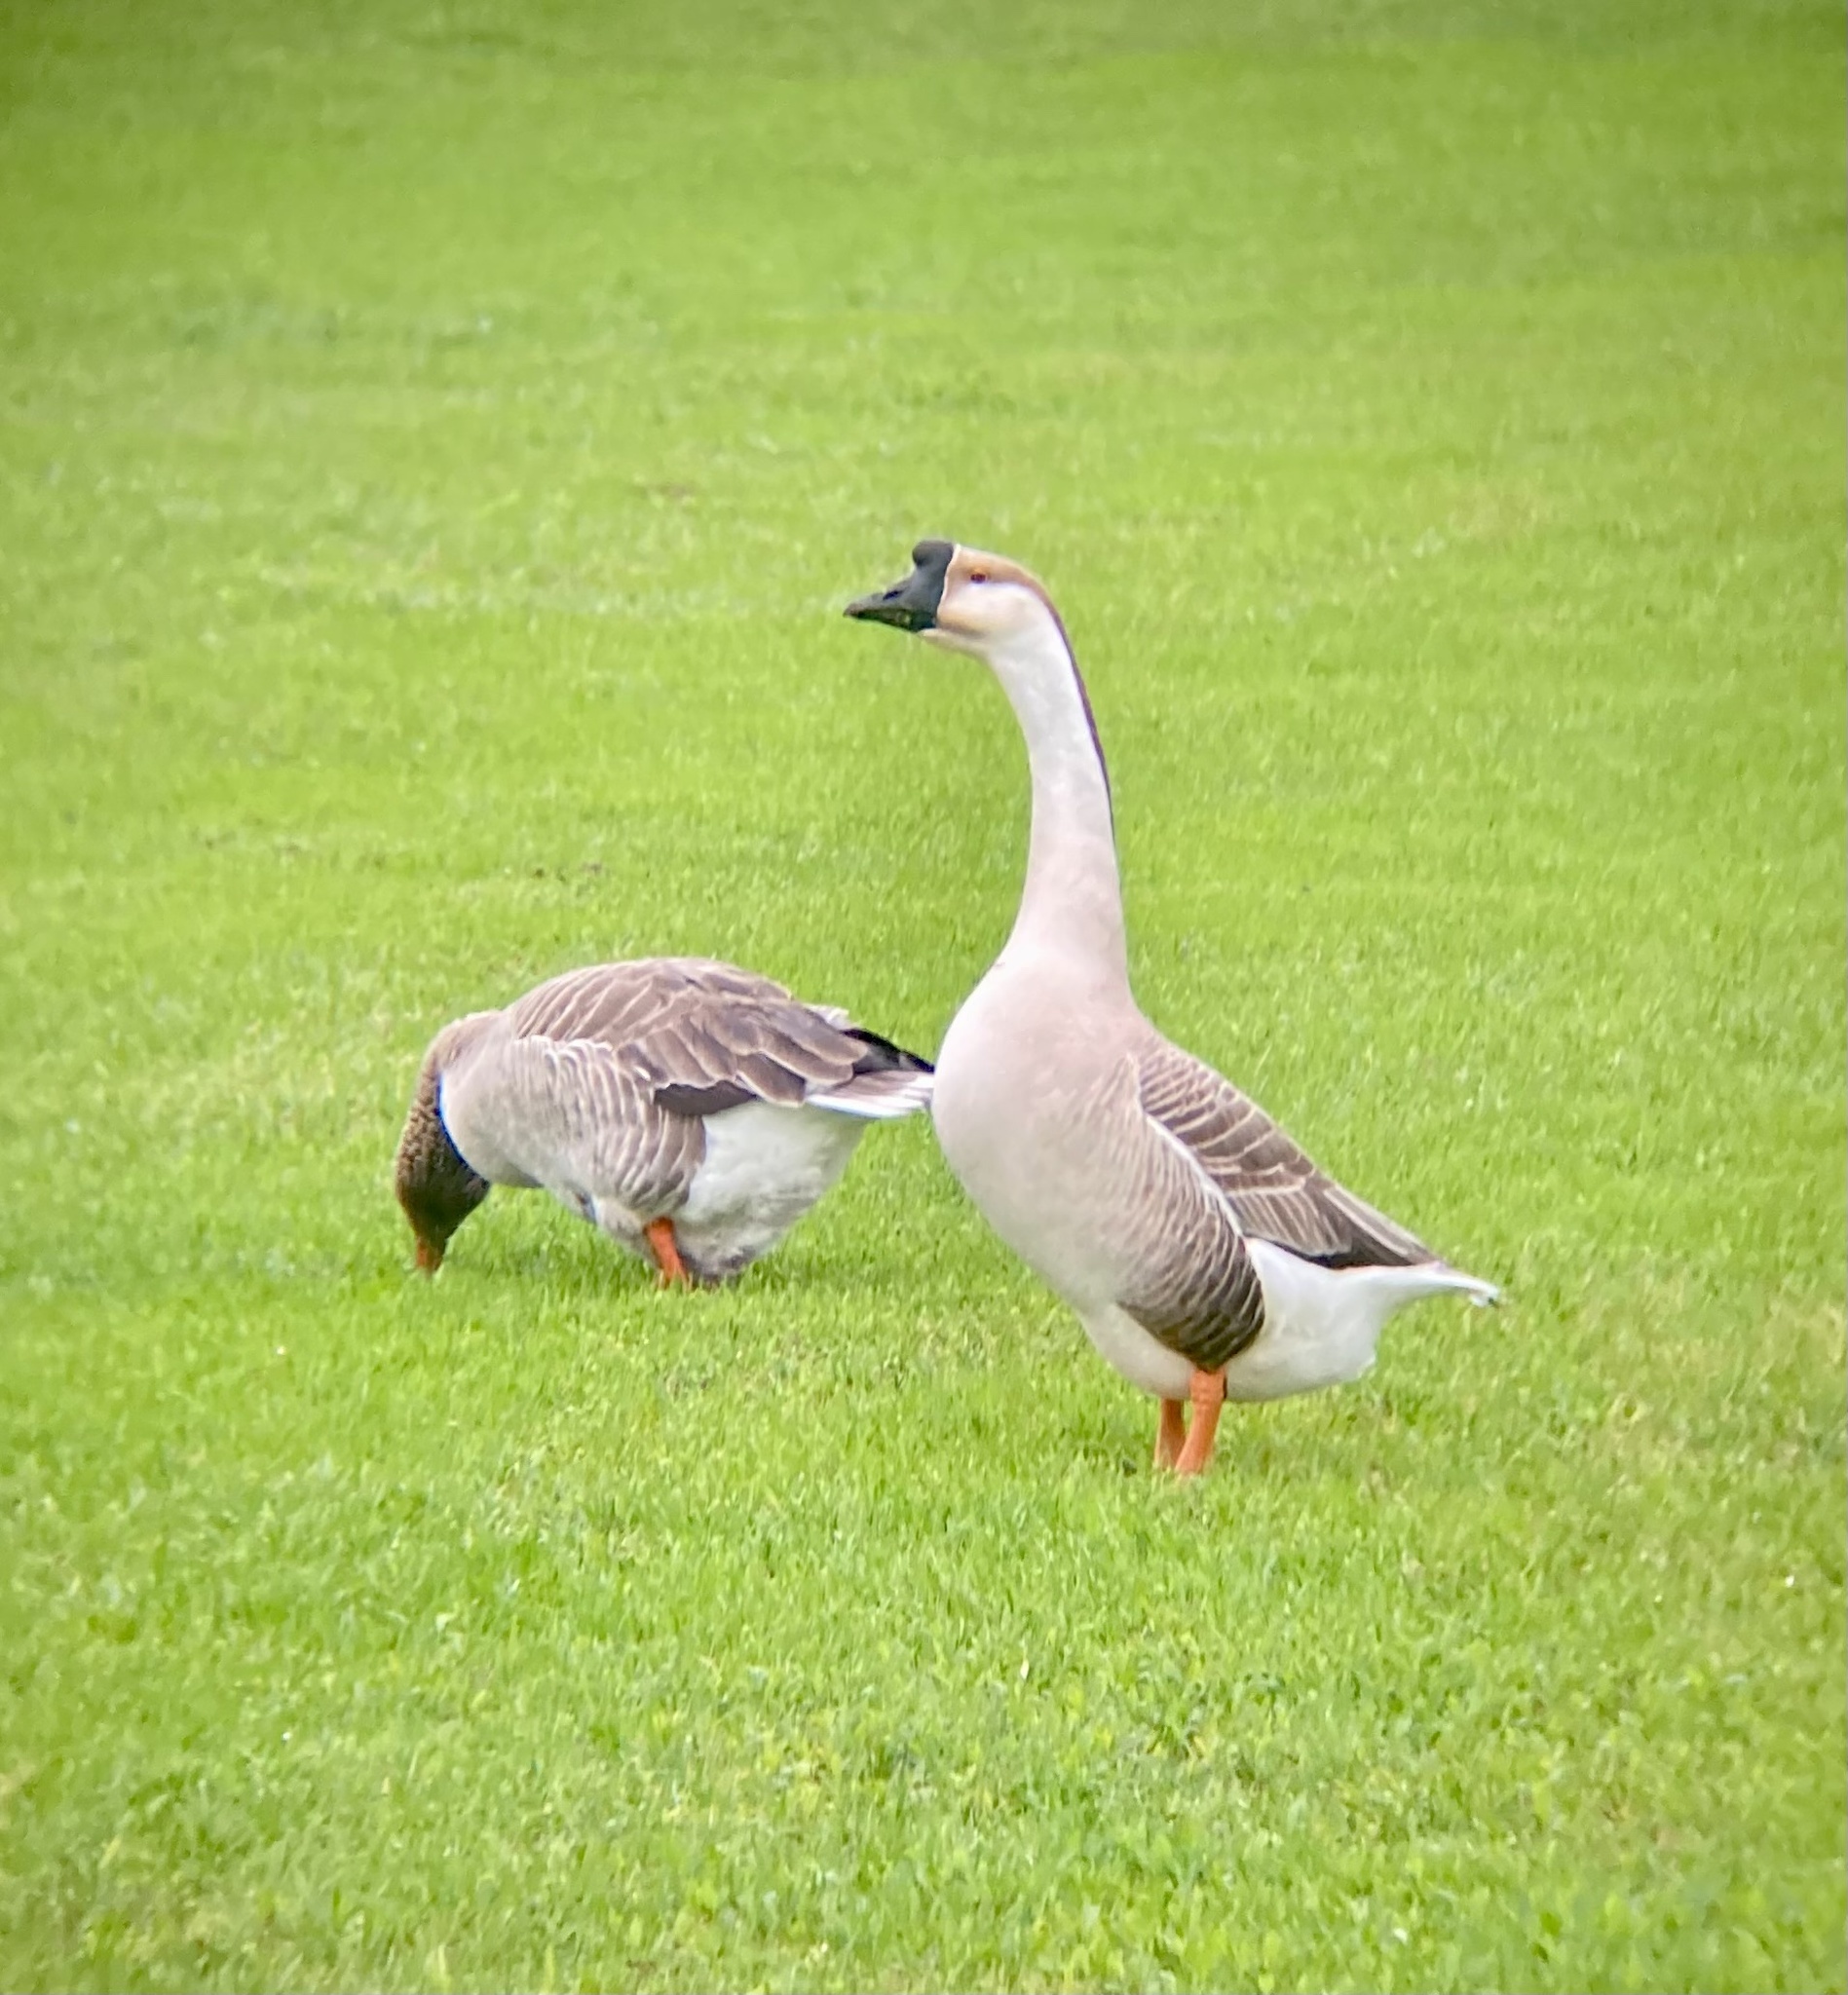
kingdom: Animalia
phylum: Chordata
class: Aves
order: Anseriformes
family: Anatidae
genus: Anser
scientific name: Anser cygnoides
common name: Swan goose
